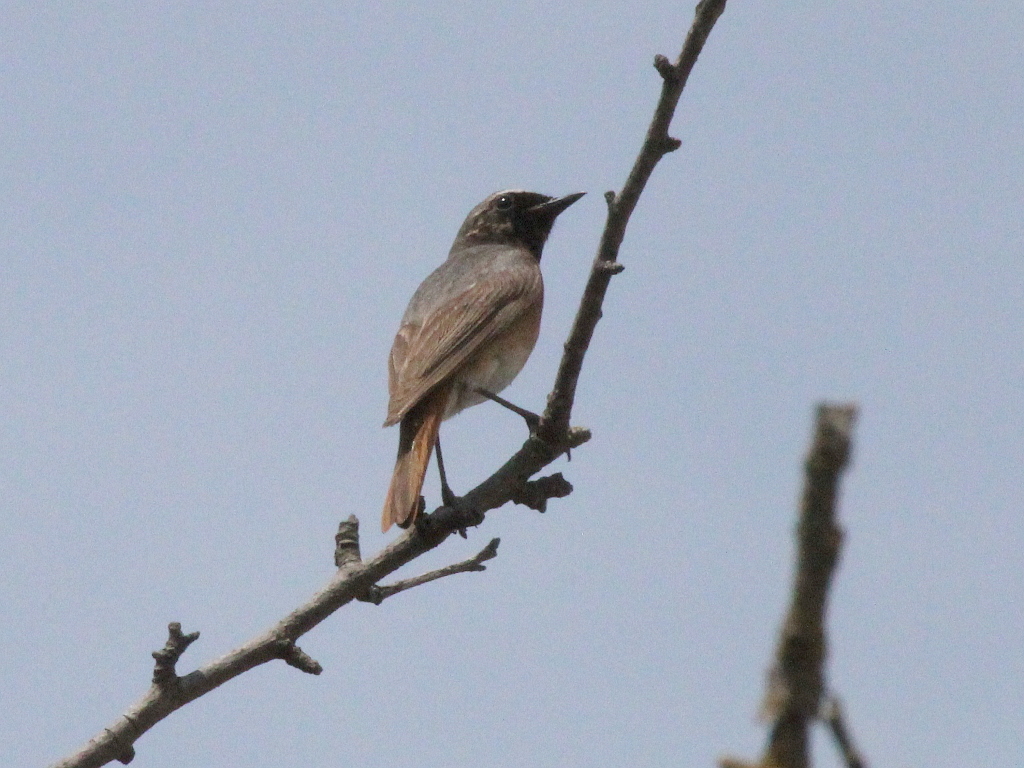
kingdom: Animalia
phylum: Chordata
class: Aves
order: Passeriformes
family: Muscicapidae
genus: Phoenicurus
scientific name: Phoenicurus phoenicurus
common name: Common redstart
